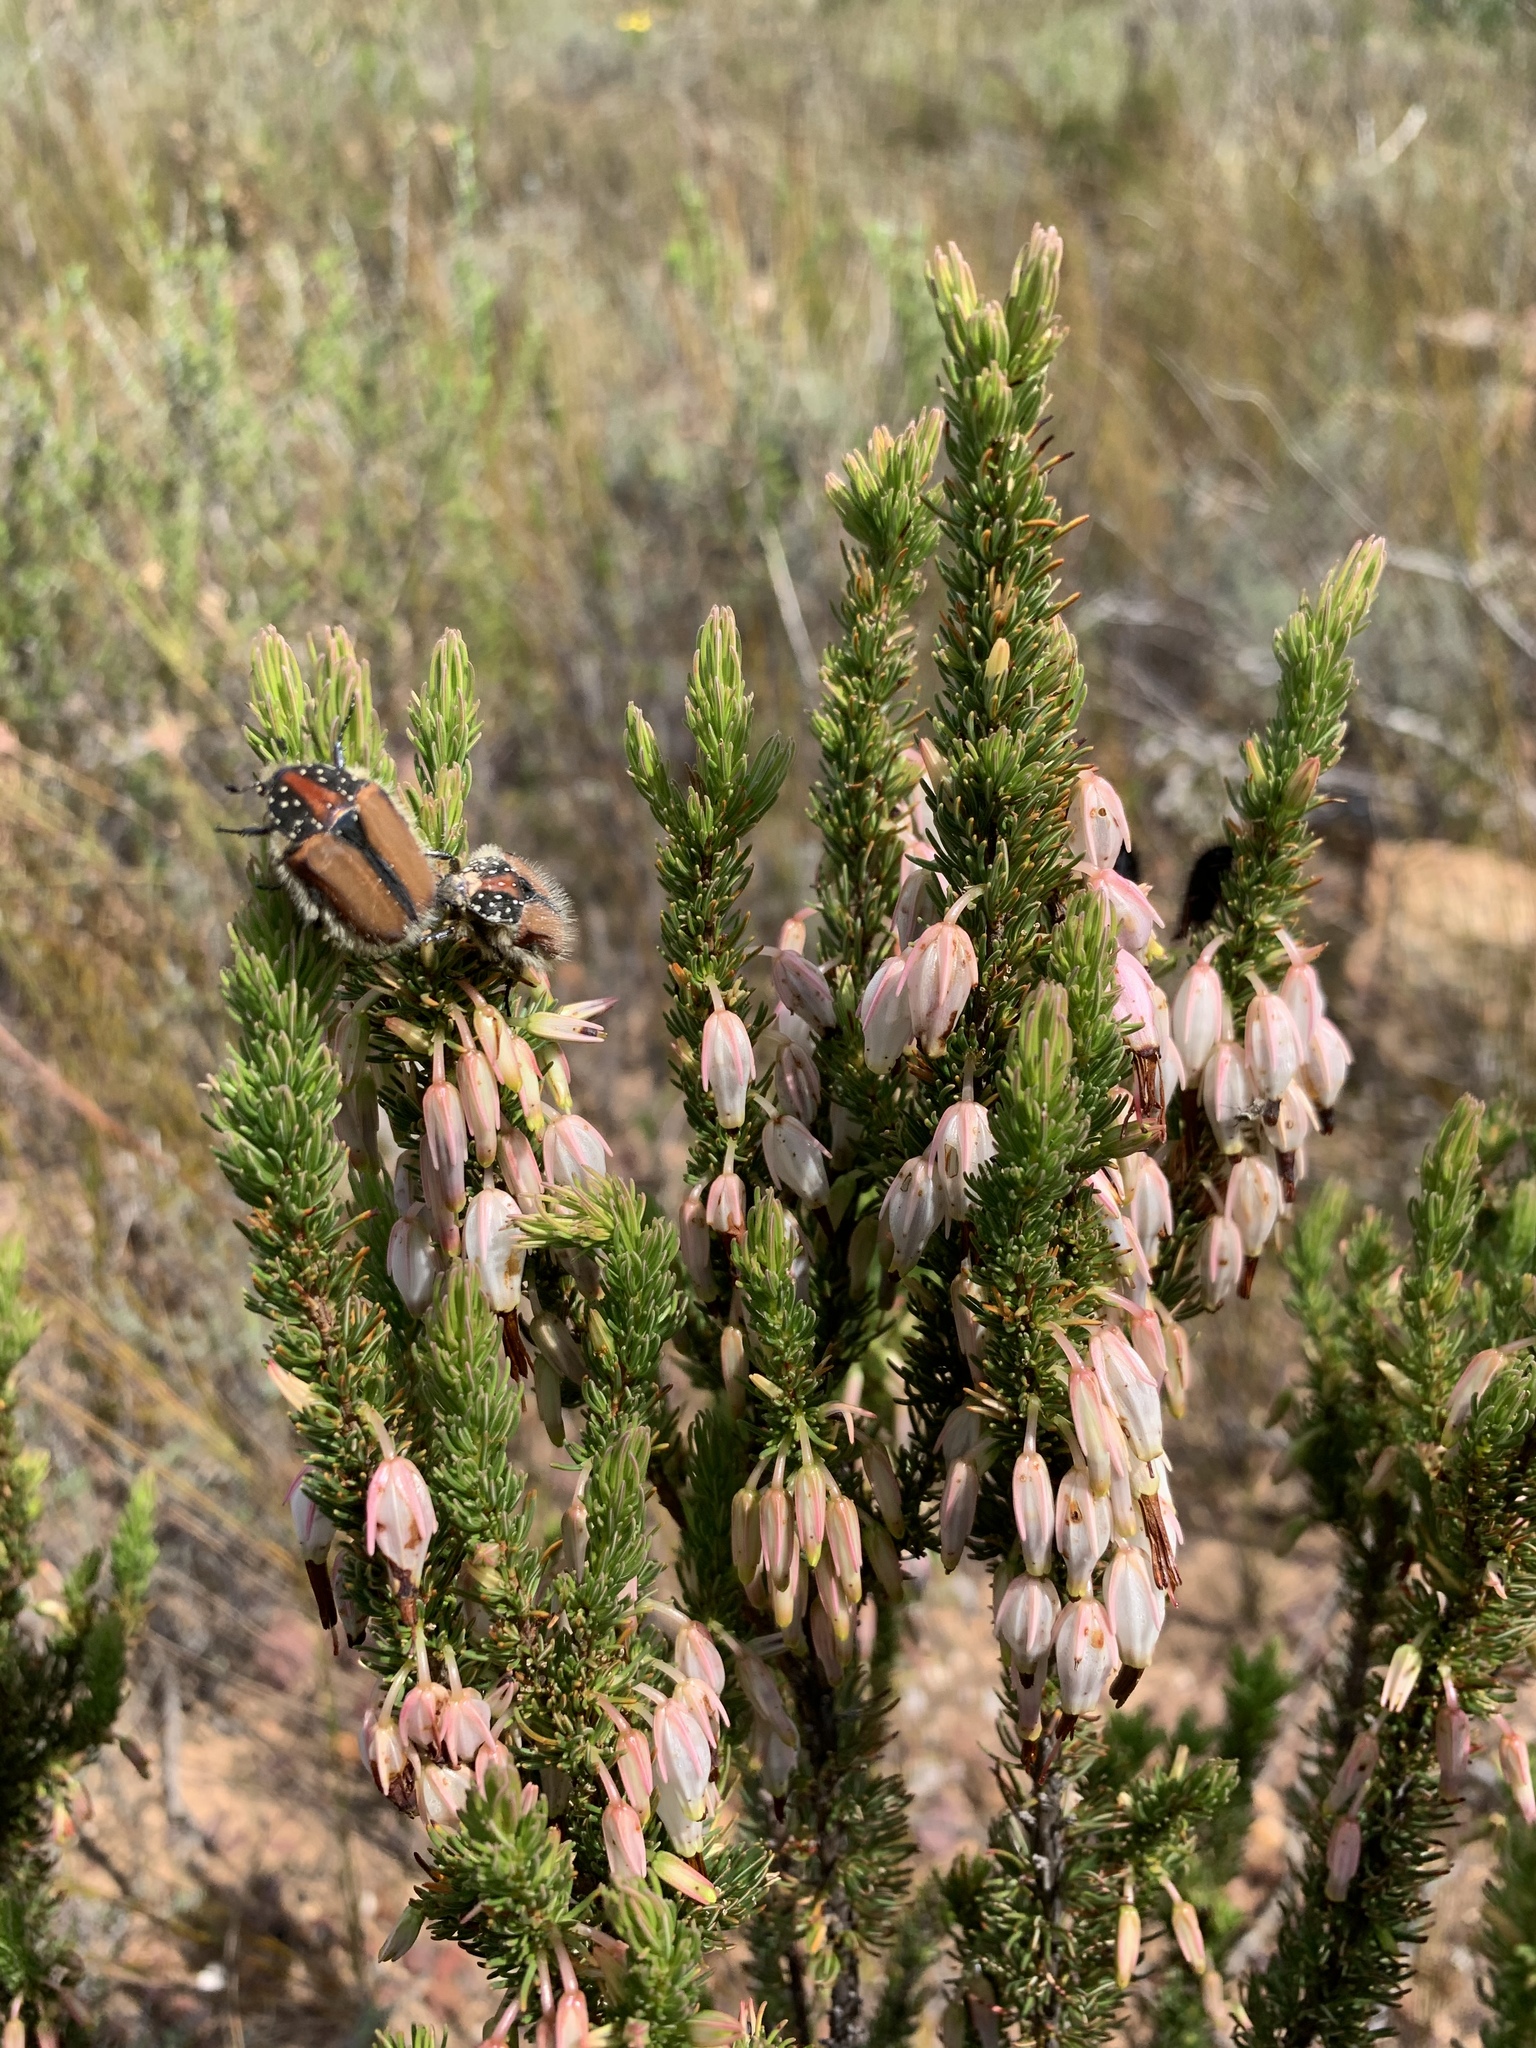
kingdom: Plantae
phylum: Tracheophyta
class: Magnoliopsida
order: Ericales
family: Ericaceae
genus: Erica
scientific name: Erica plukenetii
